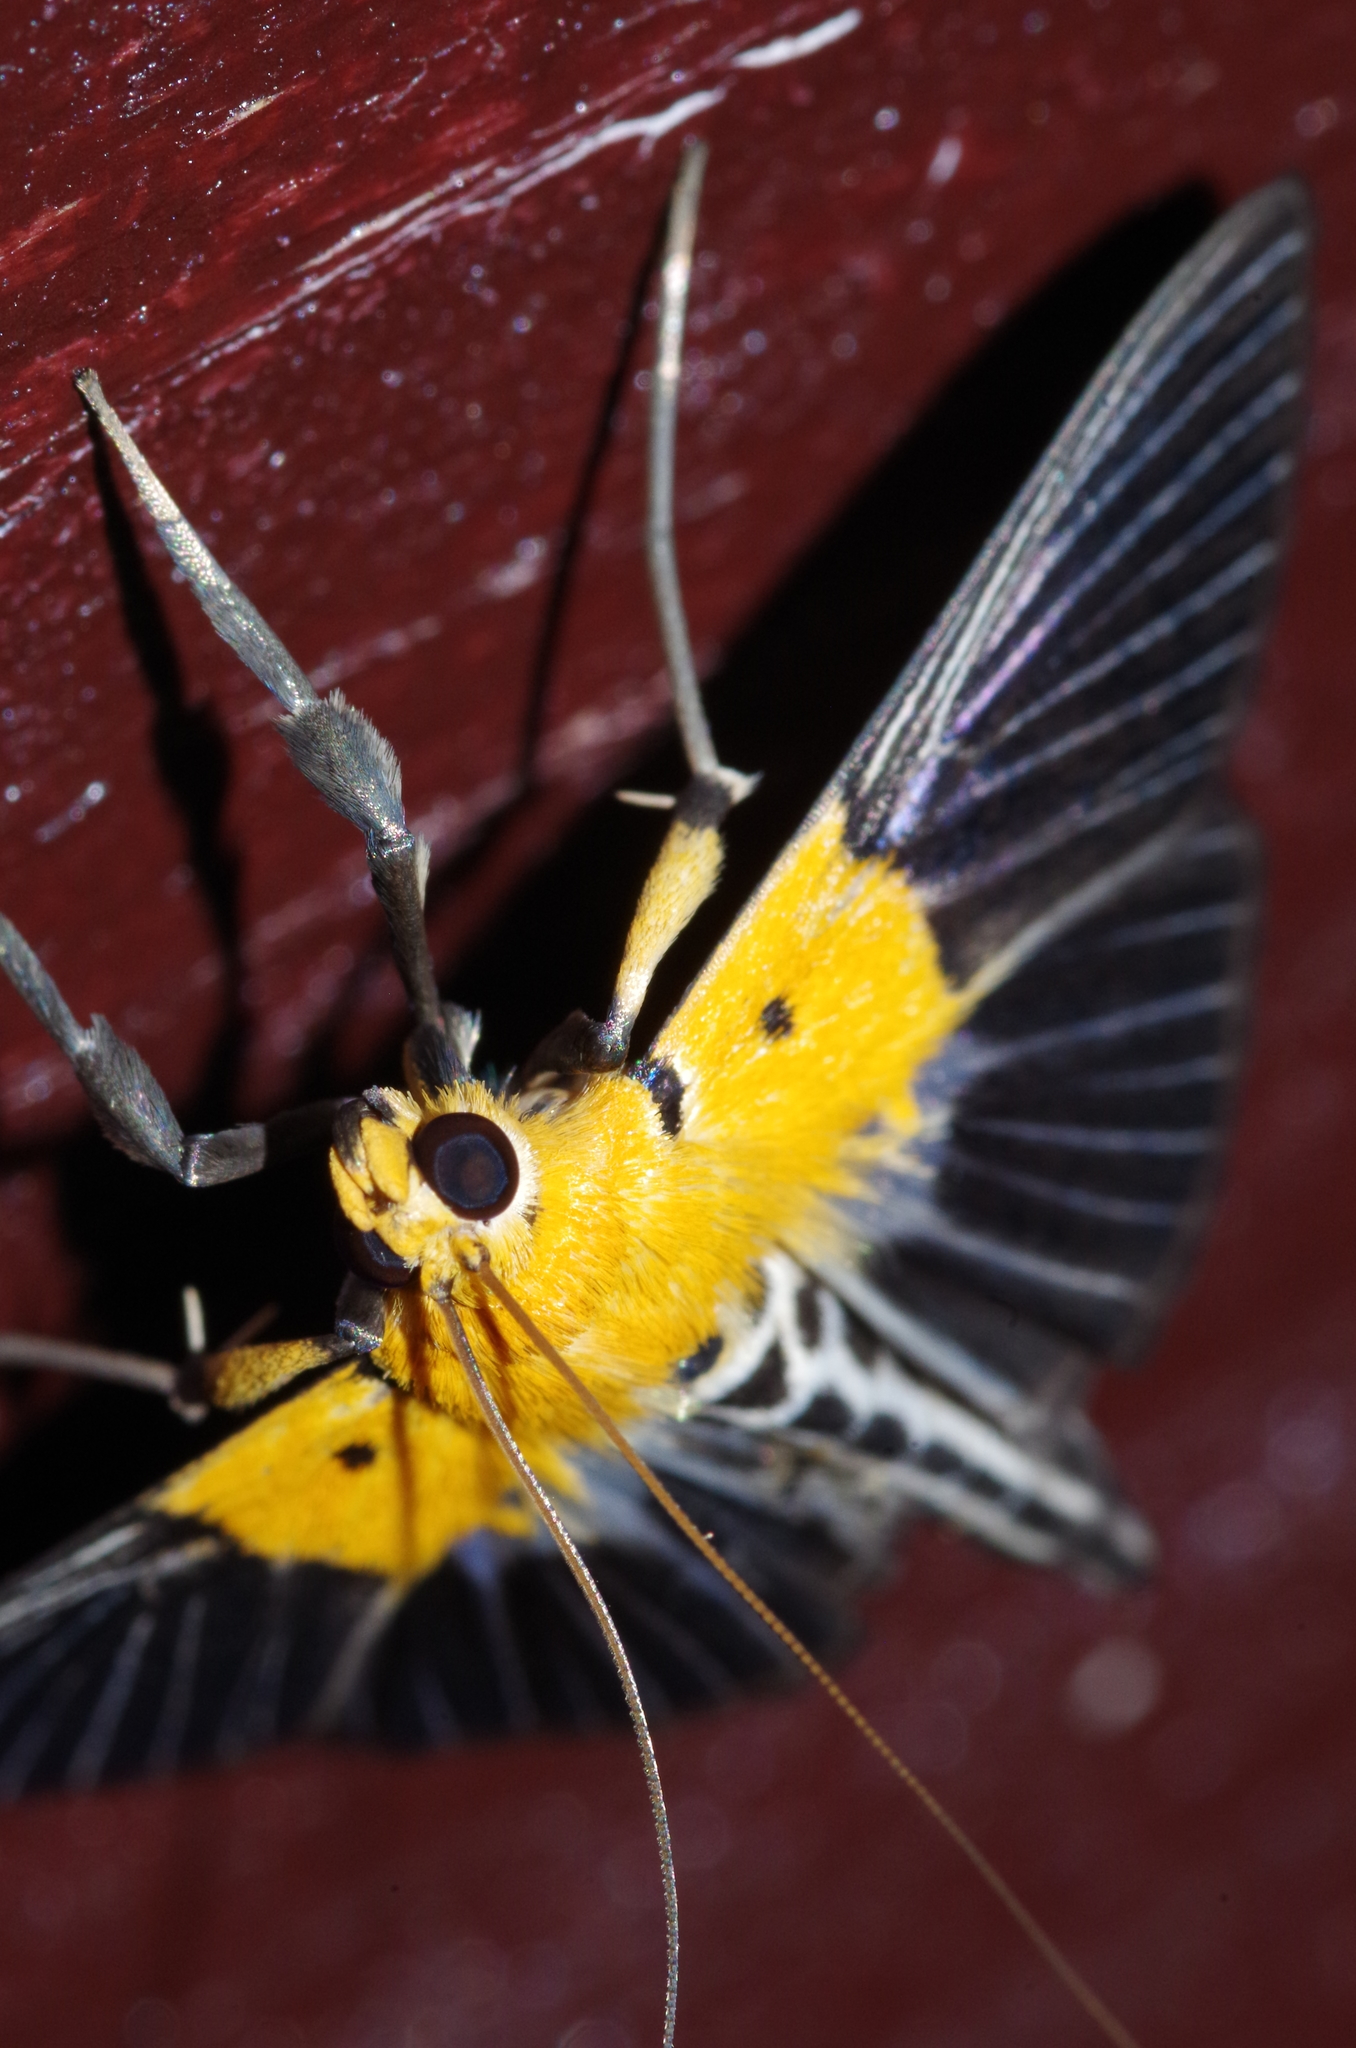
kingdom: Animalia
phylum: Arthropoda
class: Insecta
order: Lepidoptera
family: Crambidae
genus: Nevrina
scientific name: Nevrina procopia
